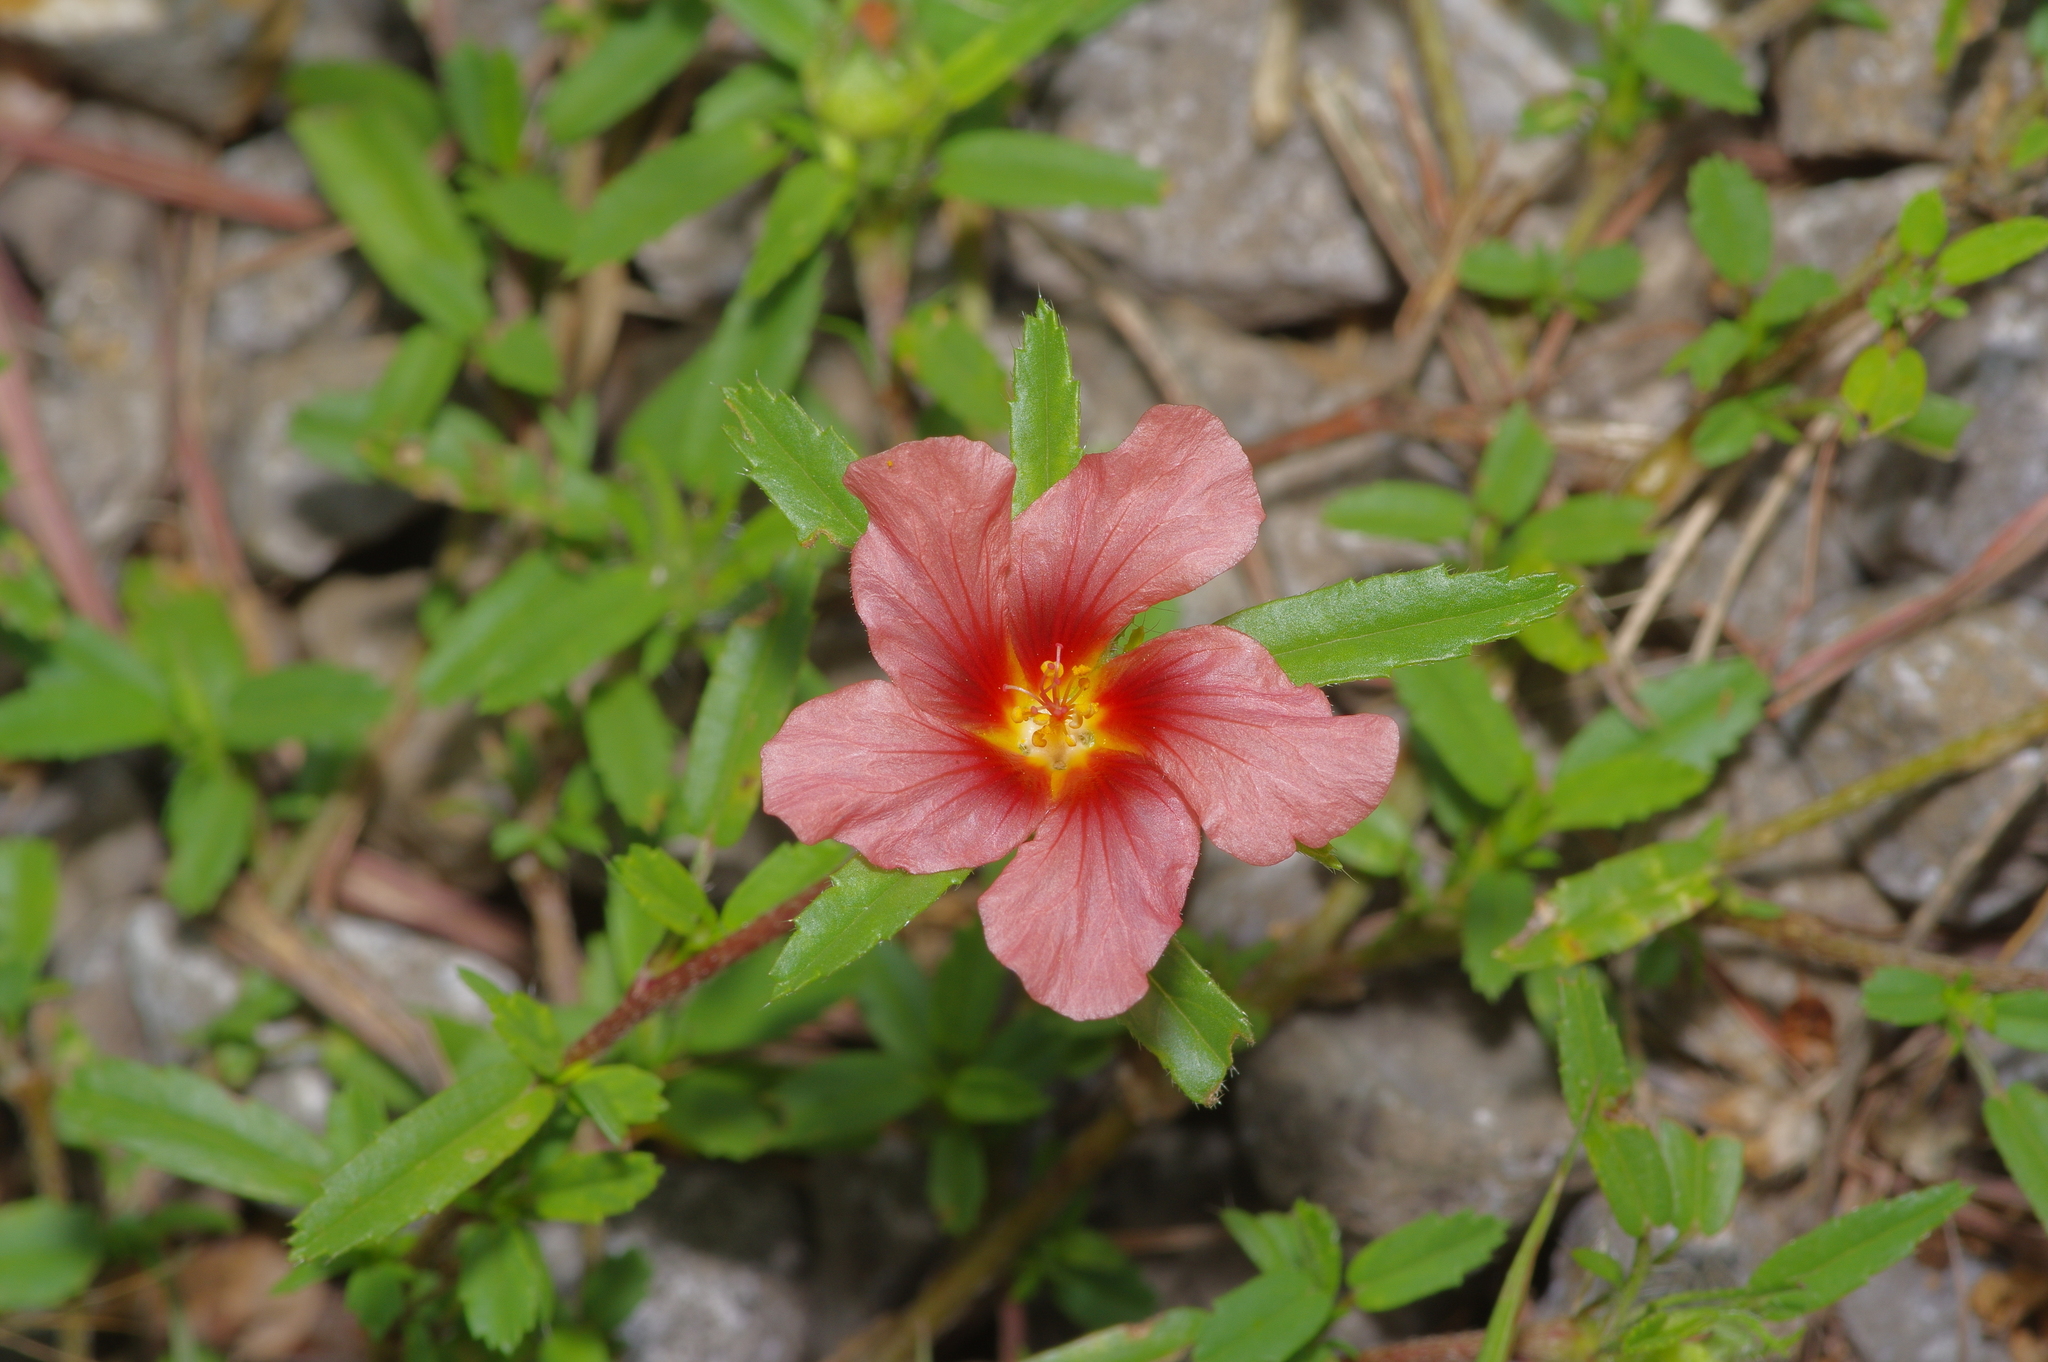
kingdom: Plantae
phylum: Tracheophyta
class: Magnoliopsida
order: Malvales
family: Malvaceae
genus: Sida
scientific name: Sida ciliaris
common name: Bracted fanpetals
